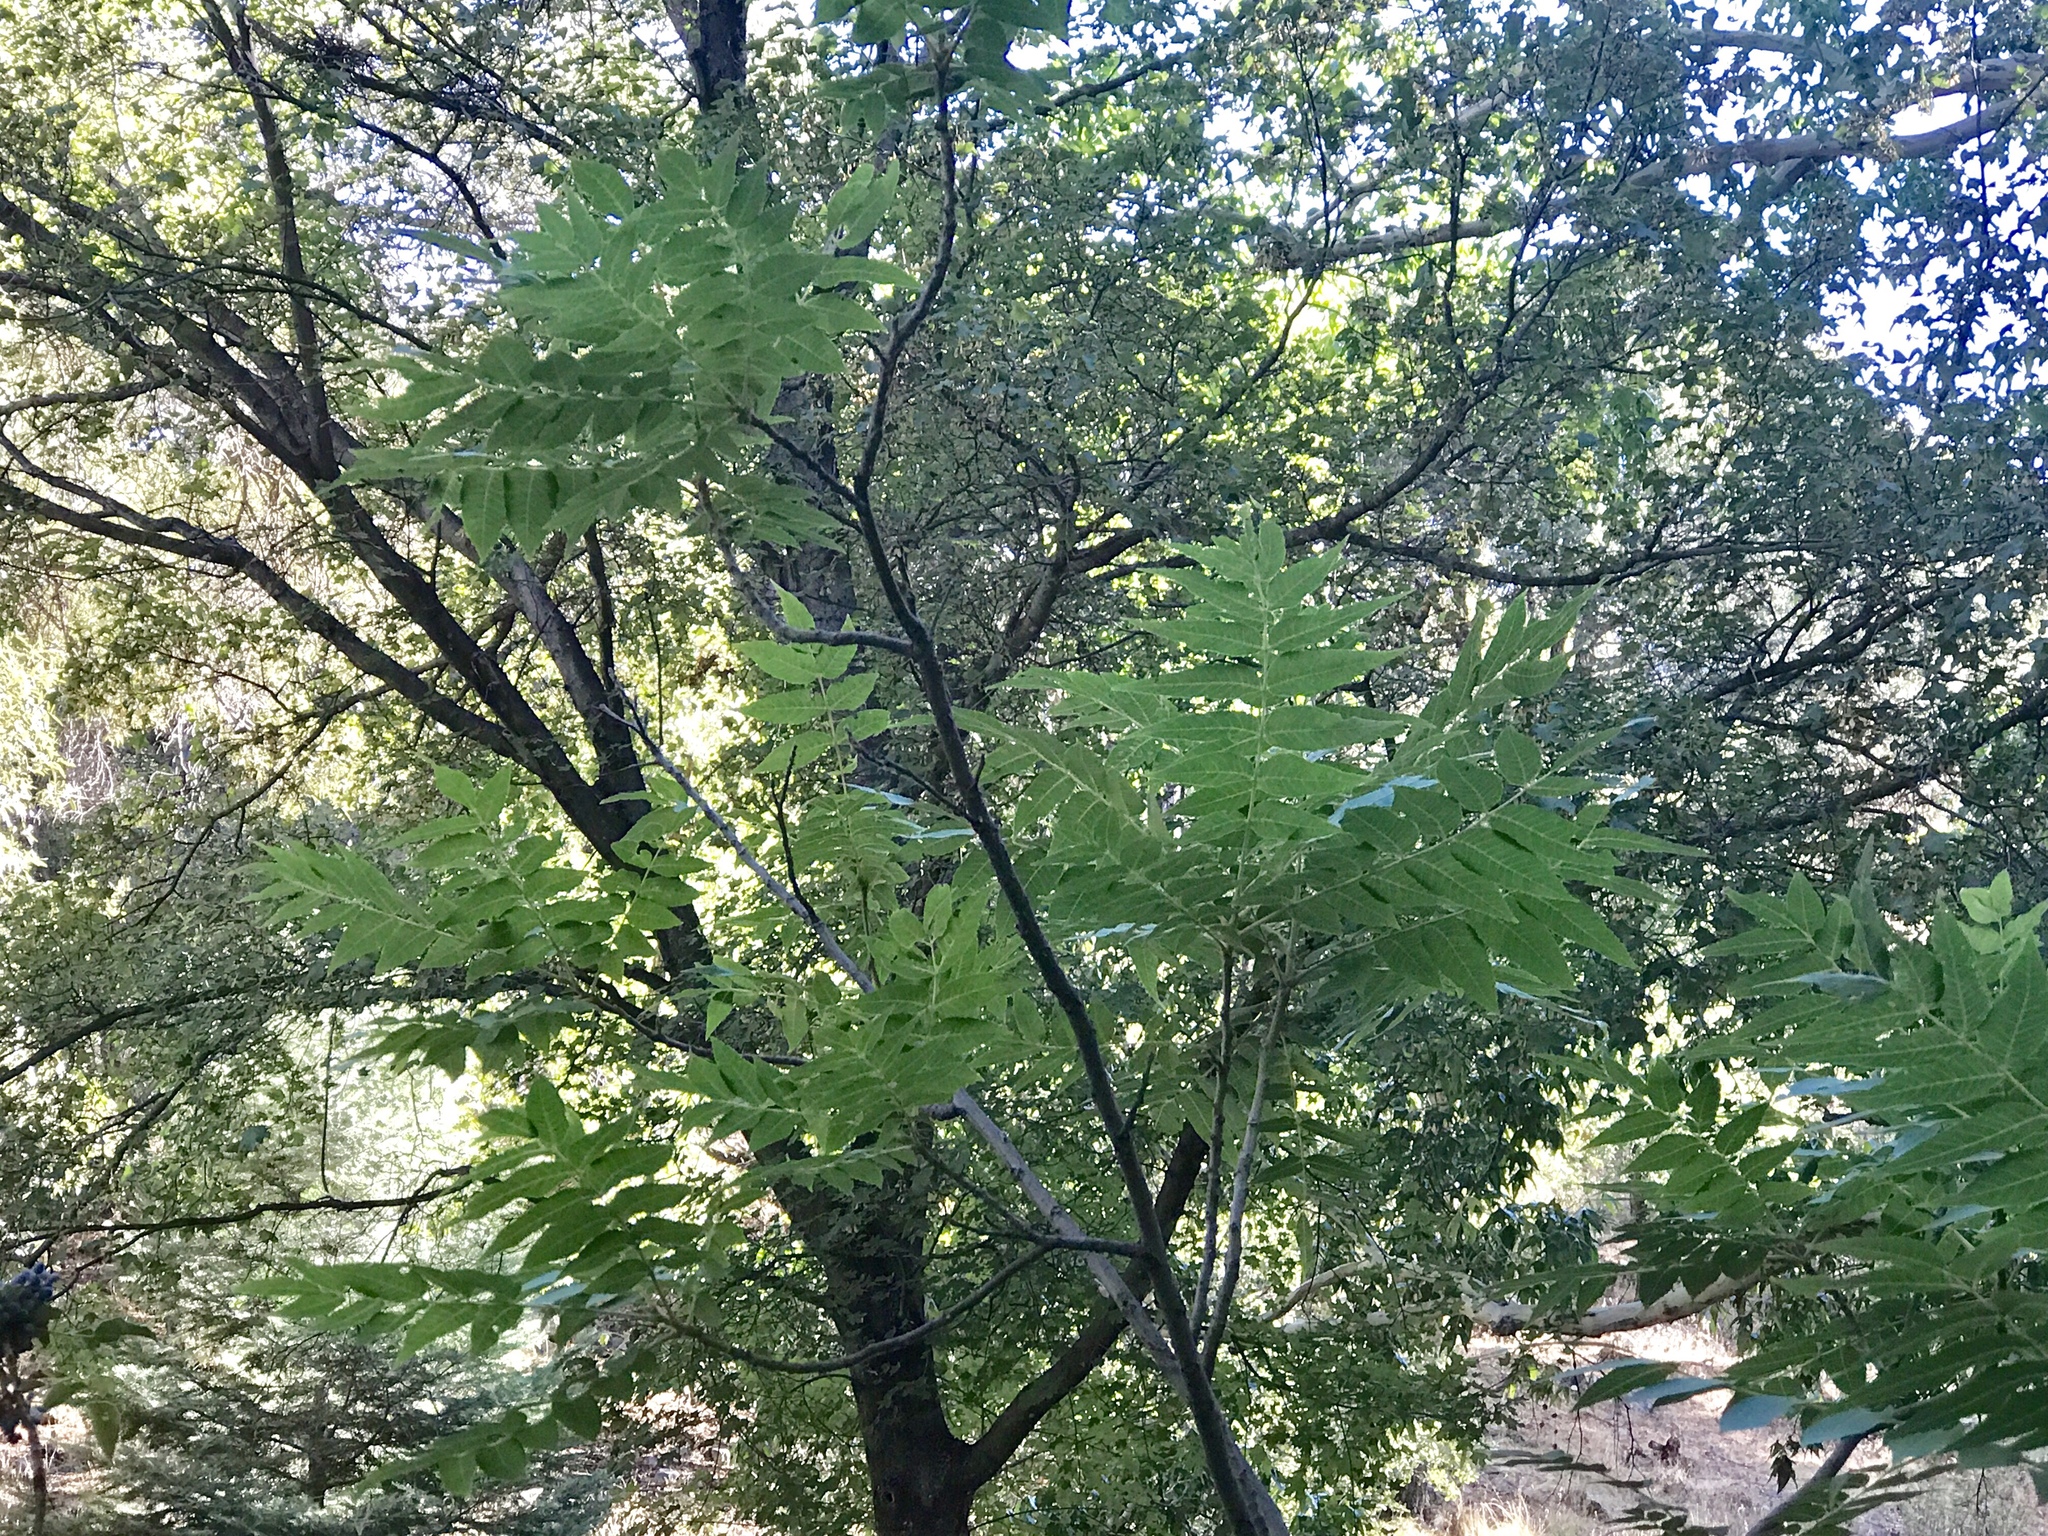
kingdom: Plantae
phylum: Tracheophyta
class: Magnoliopsida
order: Fagales
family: Juglandaceae
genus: Juglans
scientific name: Juglans major
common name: Arizona walnut
